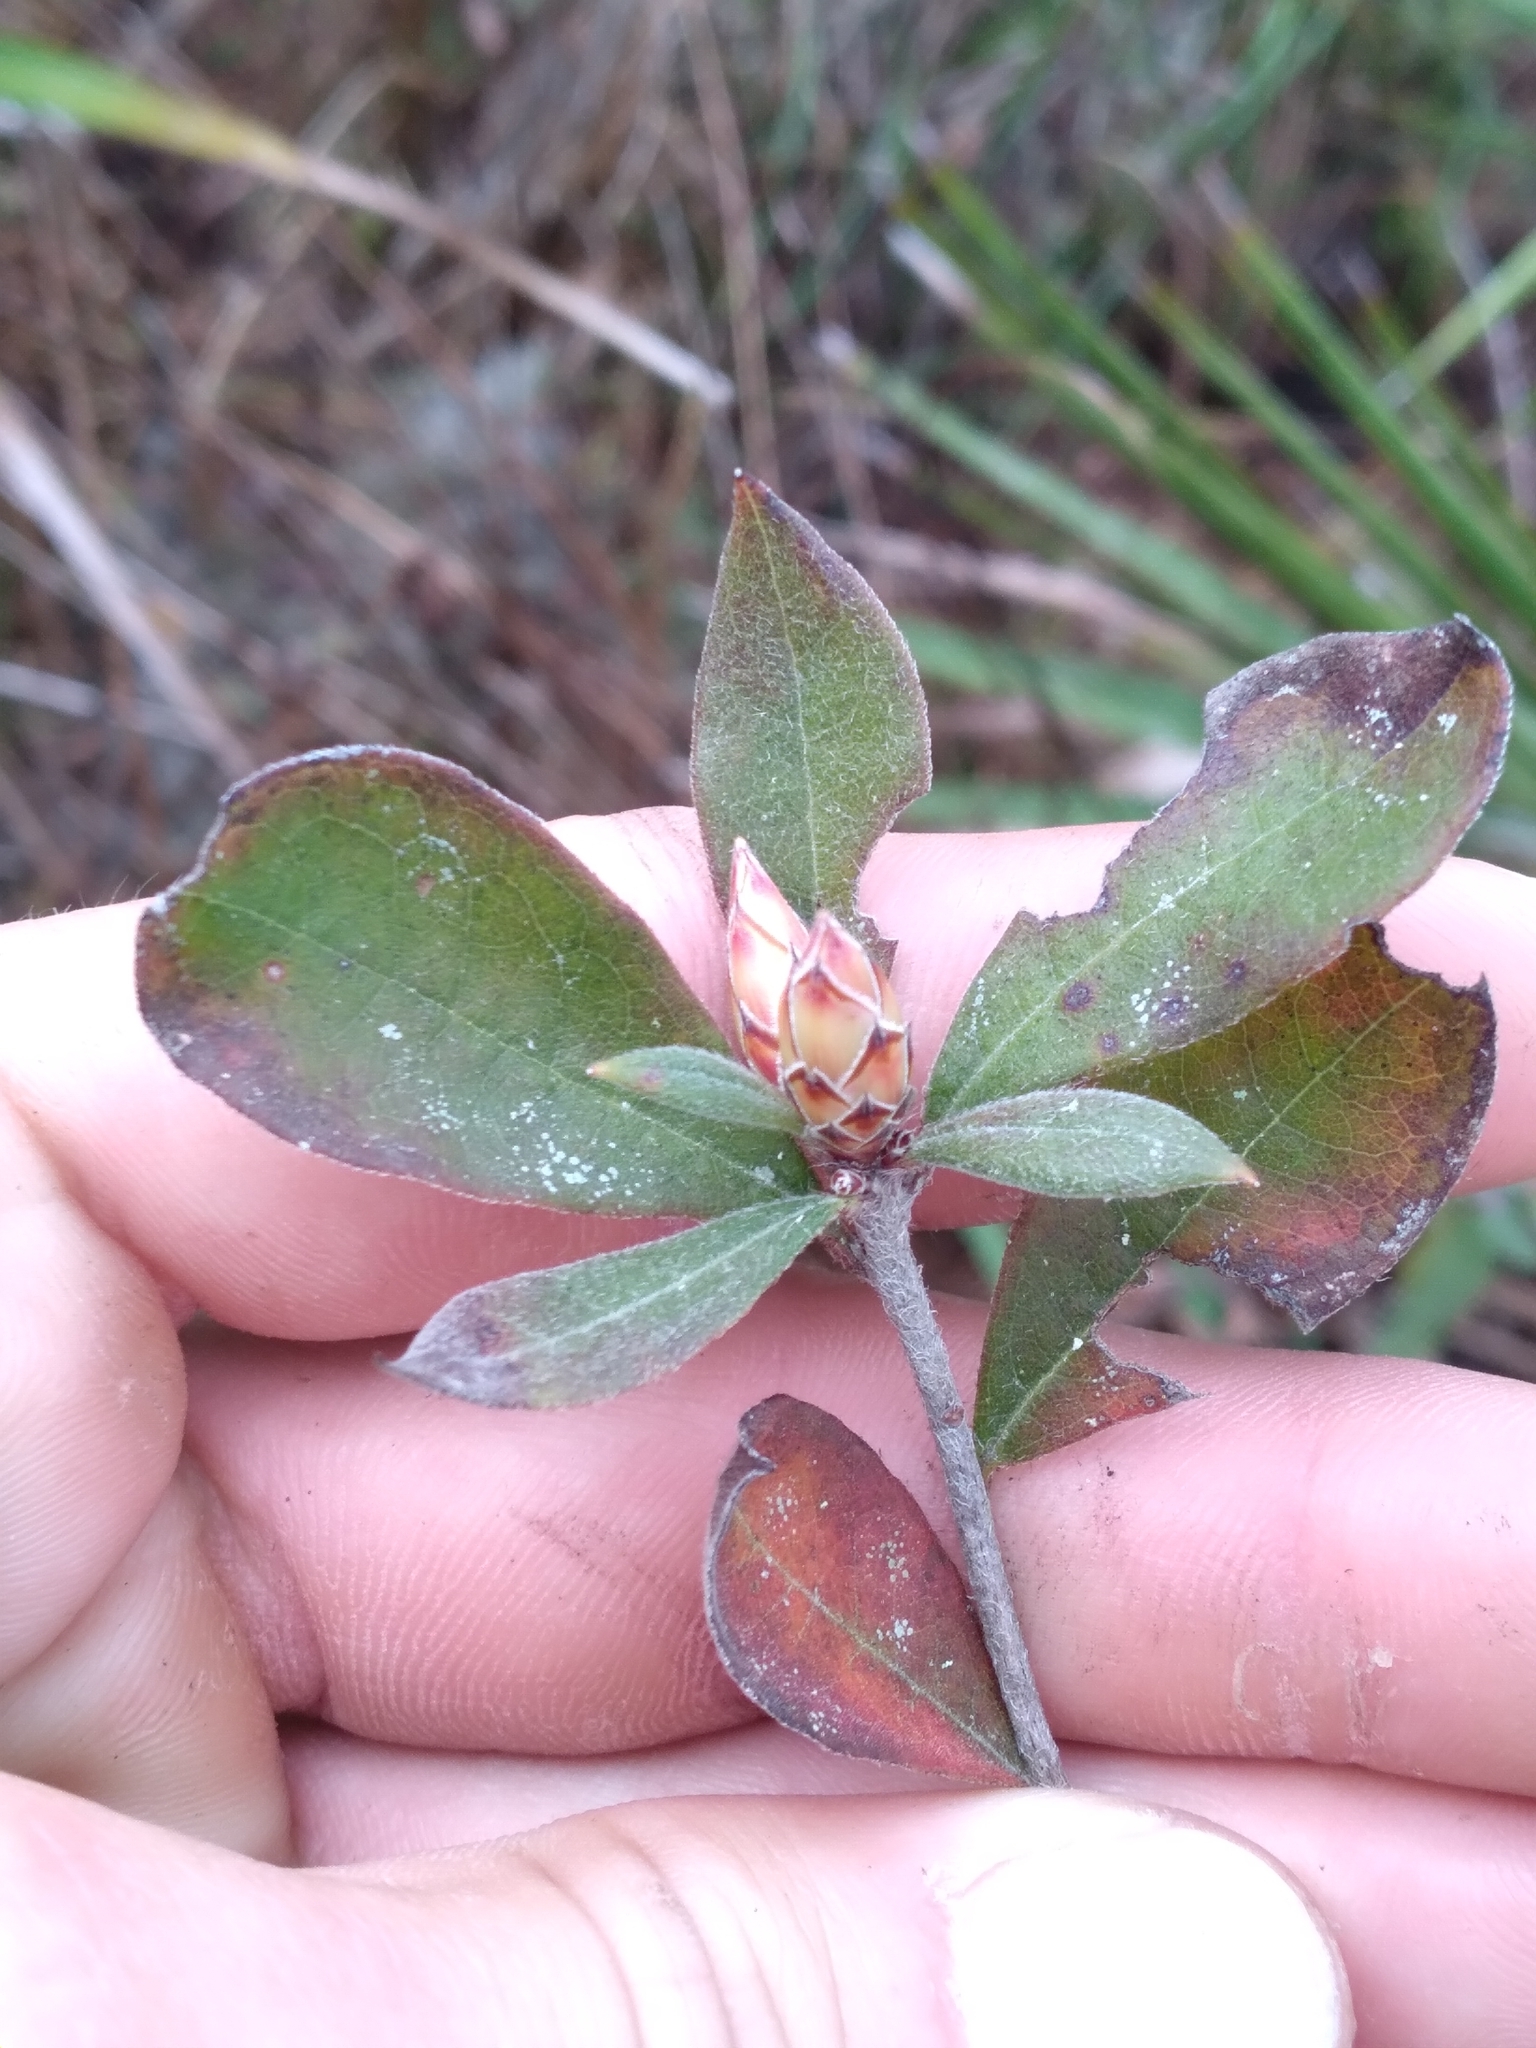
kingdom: Plantae
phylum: Tracheophyta
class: Magnoliopsida
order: Ericales
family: Ericaceae
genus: Rhododendron
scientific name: Rhododendron serrulatum
